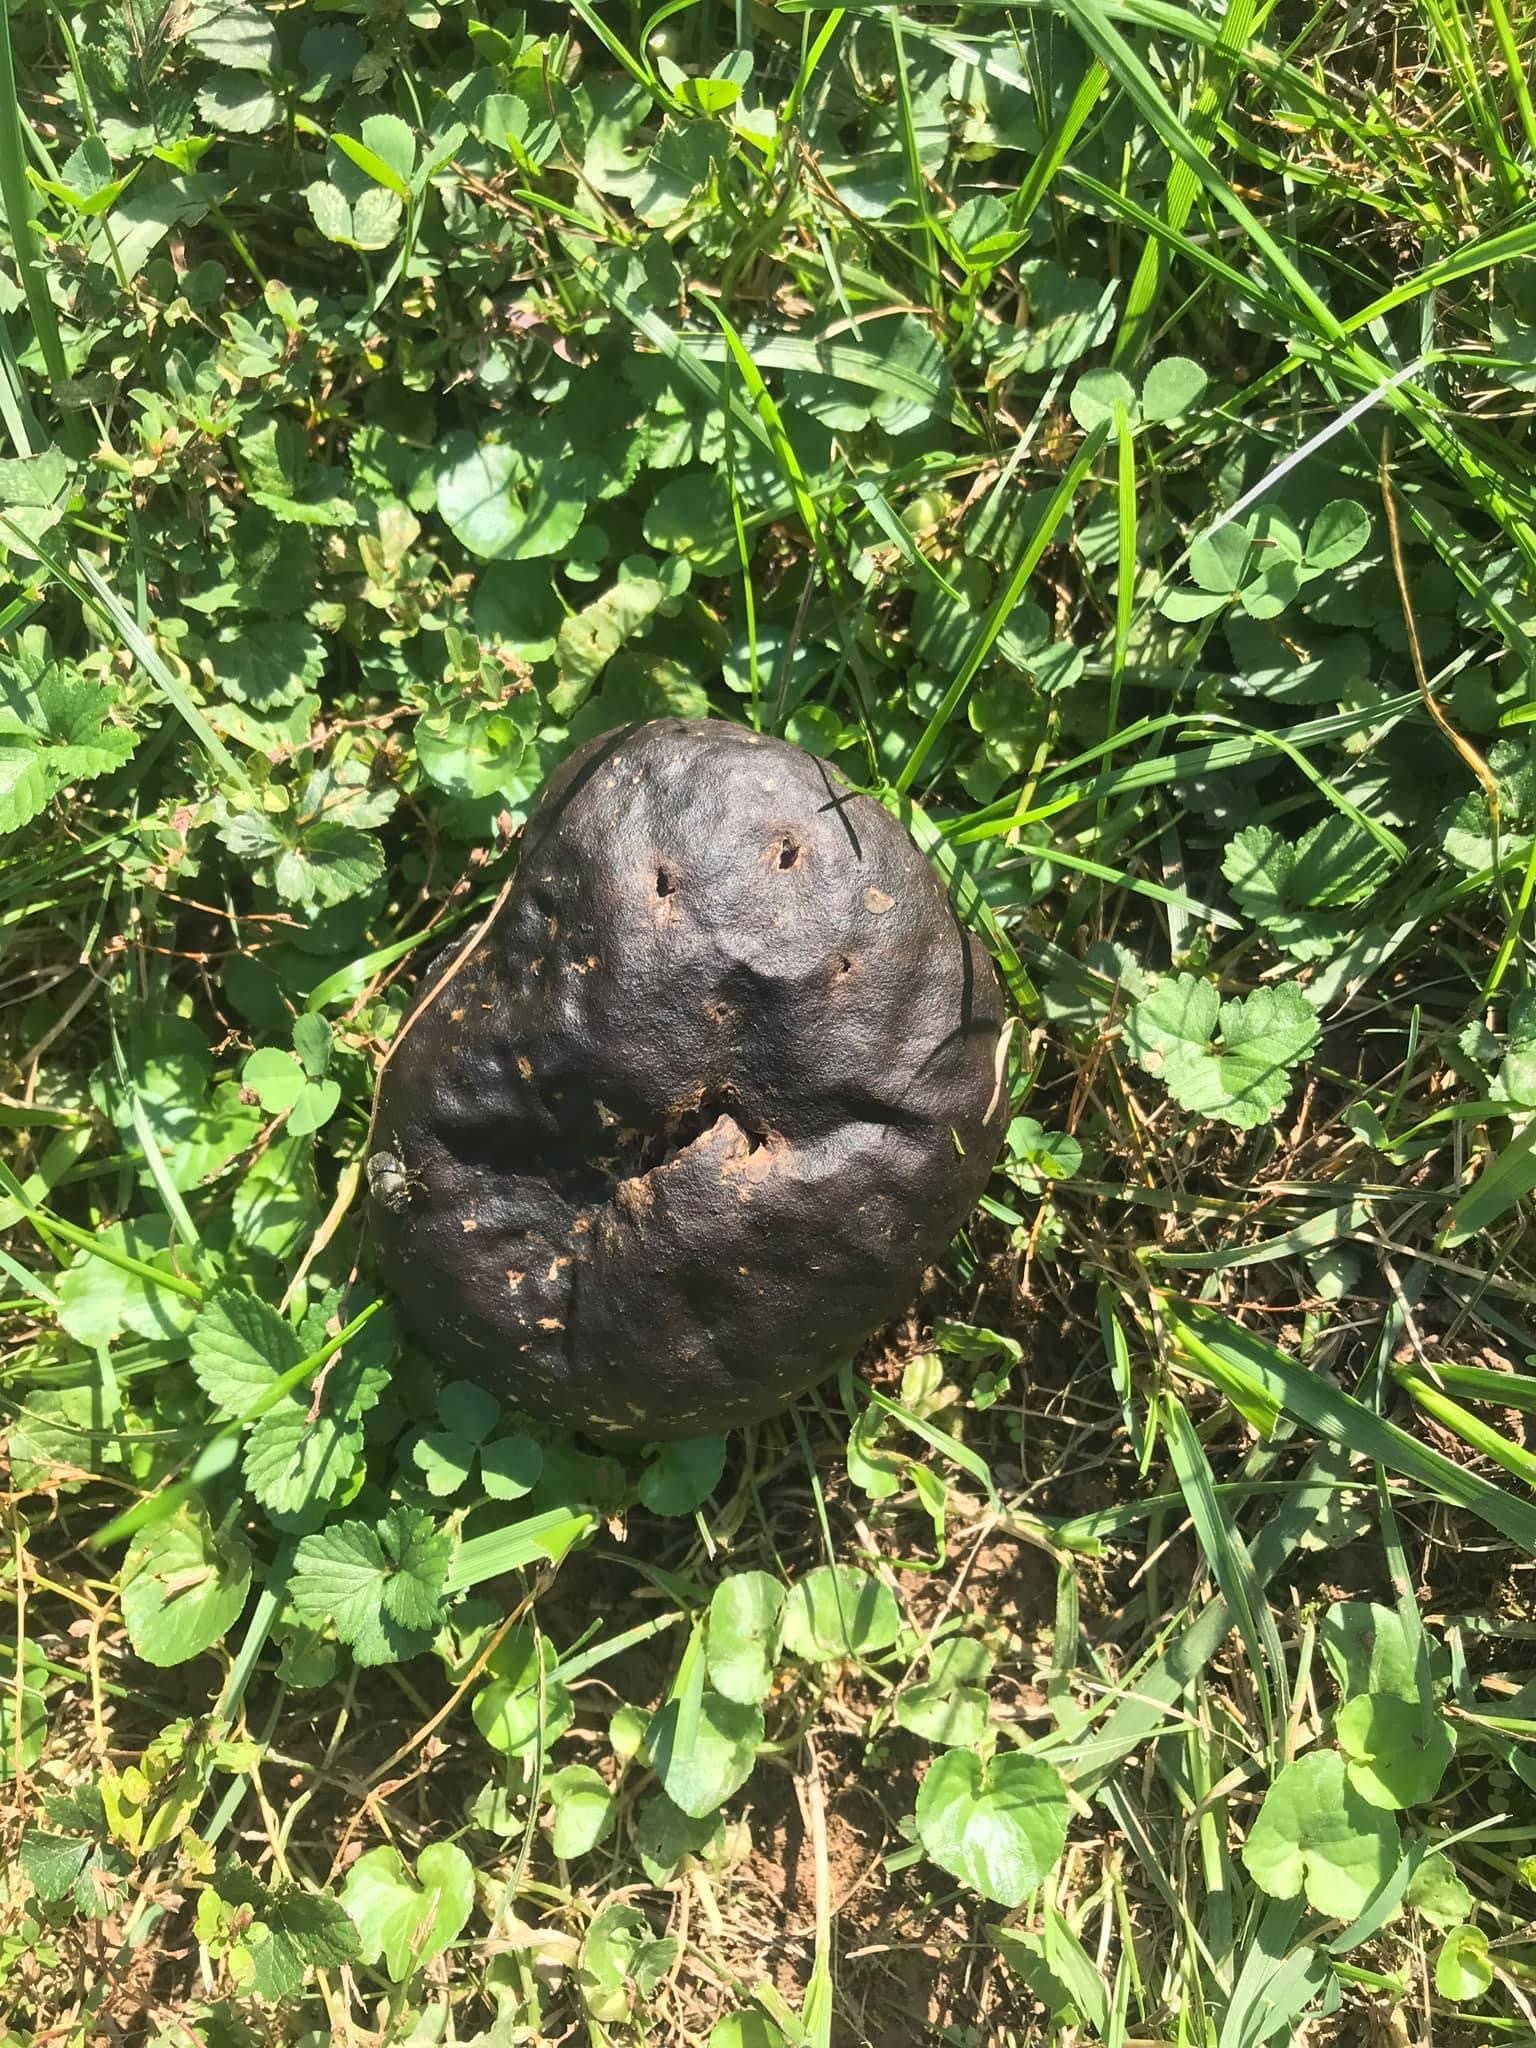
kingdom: Fungi
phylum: Basidiomycota
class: Agaricomycetes
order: Agaricales
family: Lycoperdaceae
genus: Calvatia
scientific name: Calvatia cyathiformis
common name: Purple-spored puffball
